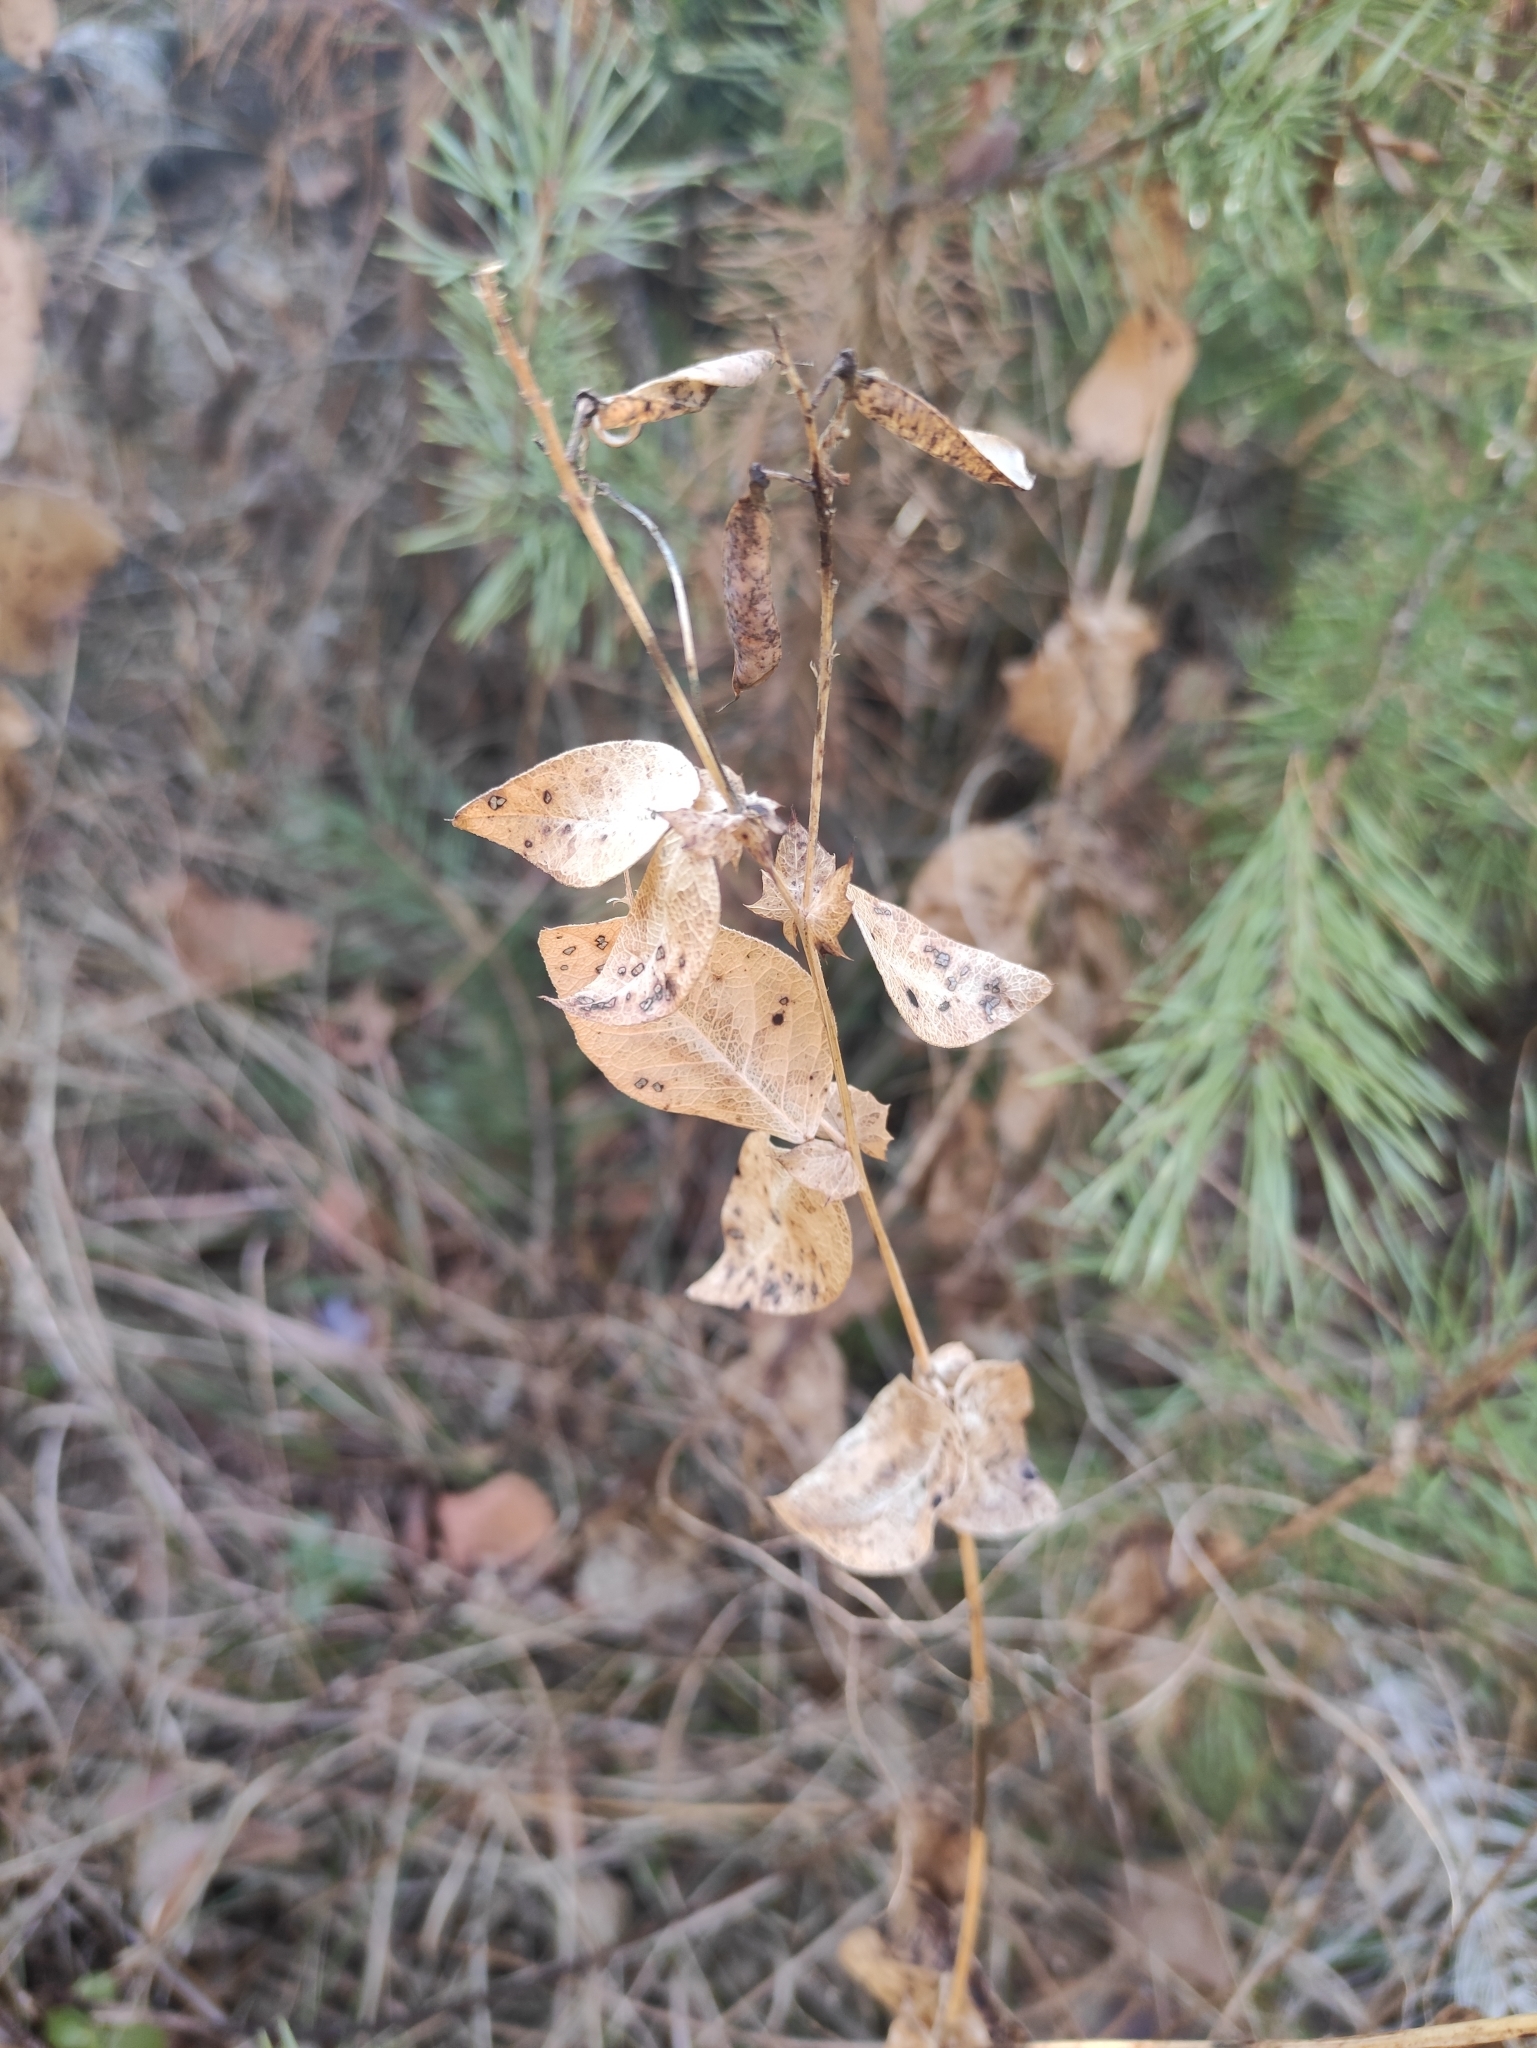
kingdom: Plantae
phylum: Tracheophyta
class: Magnoliopsida
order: Fabales
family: Fabaceae
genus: Vicia
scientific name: Vicia unijuga
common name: Two-leaf vetch
